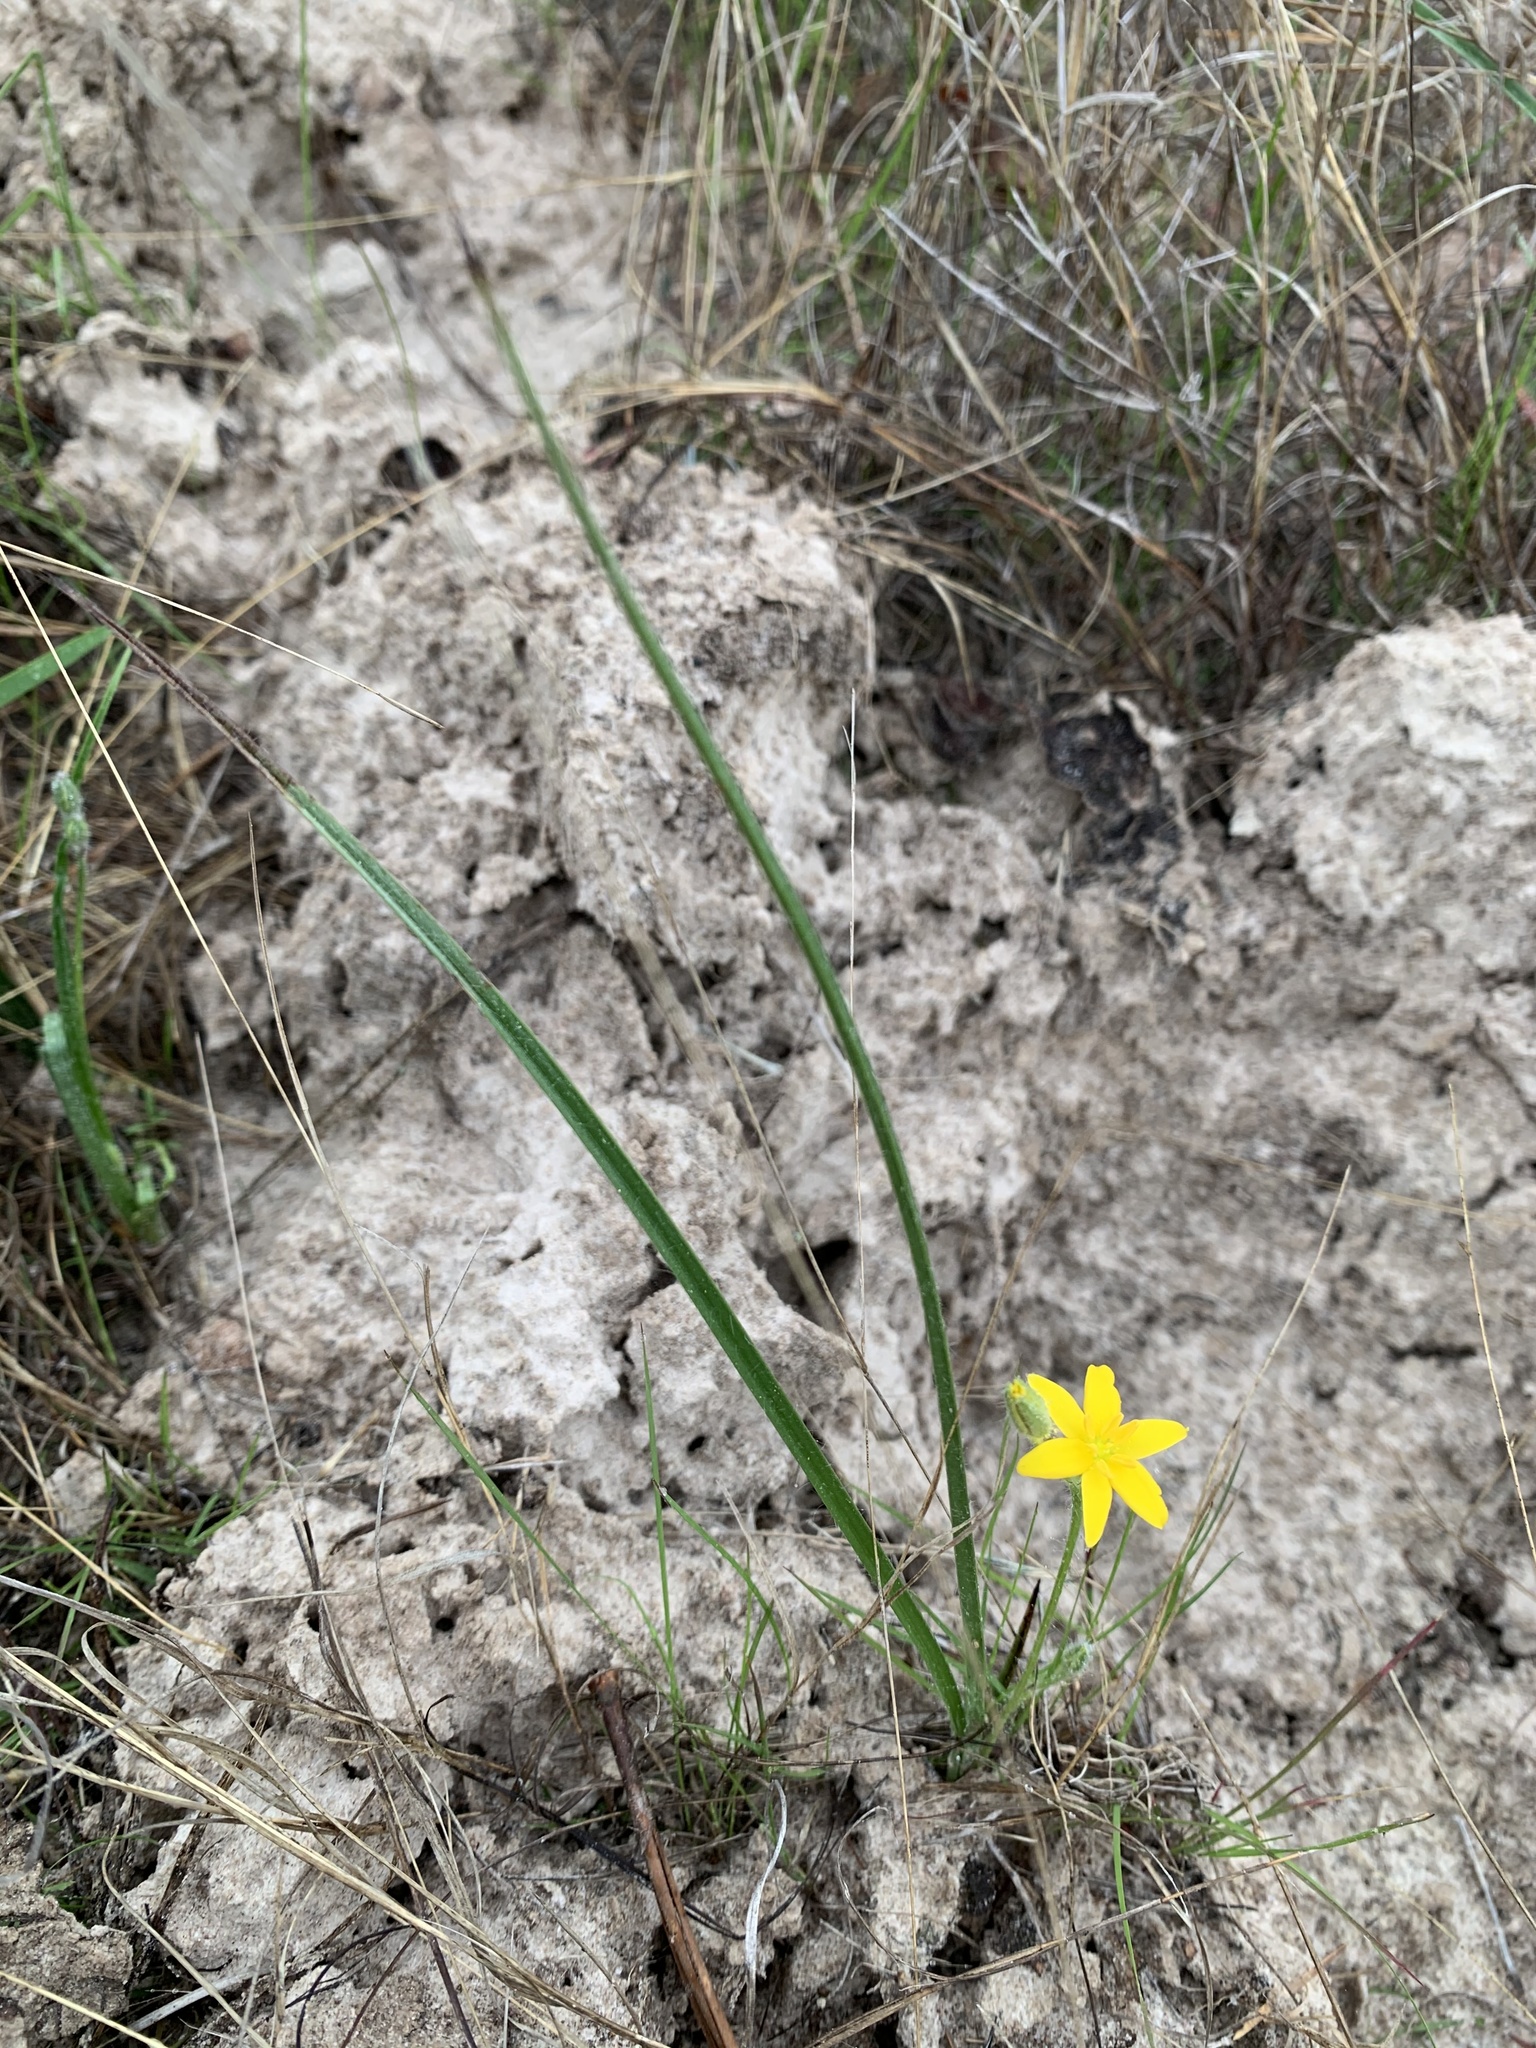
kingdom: Plantae
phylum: Tracheophyta
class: Liliopsida
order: Asparagales
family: Hypoxidaceae
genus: Hypoxis
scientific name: Hypoxis hirsuta
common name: Common goldstar
